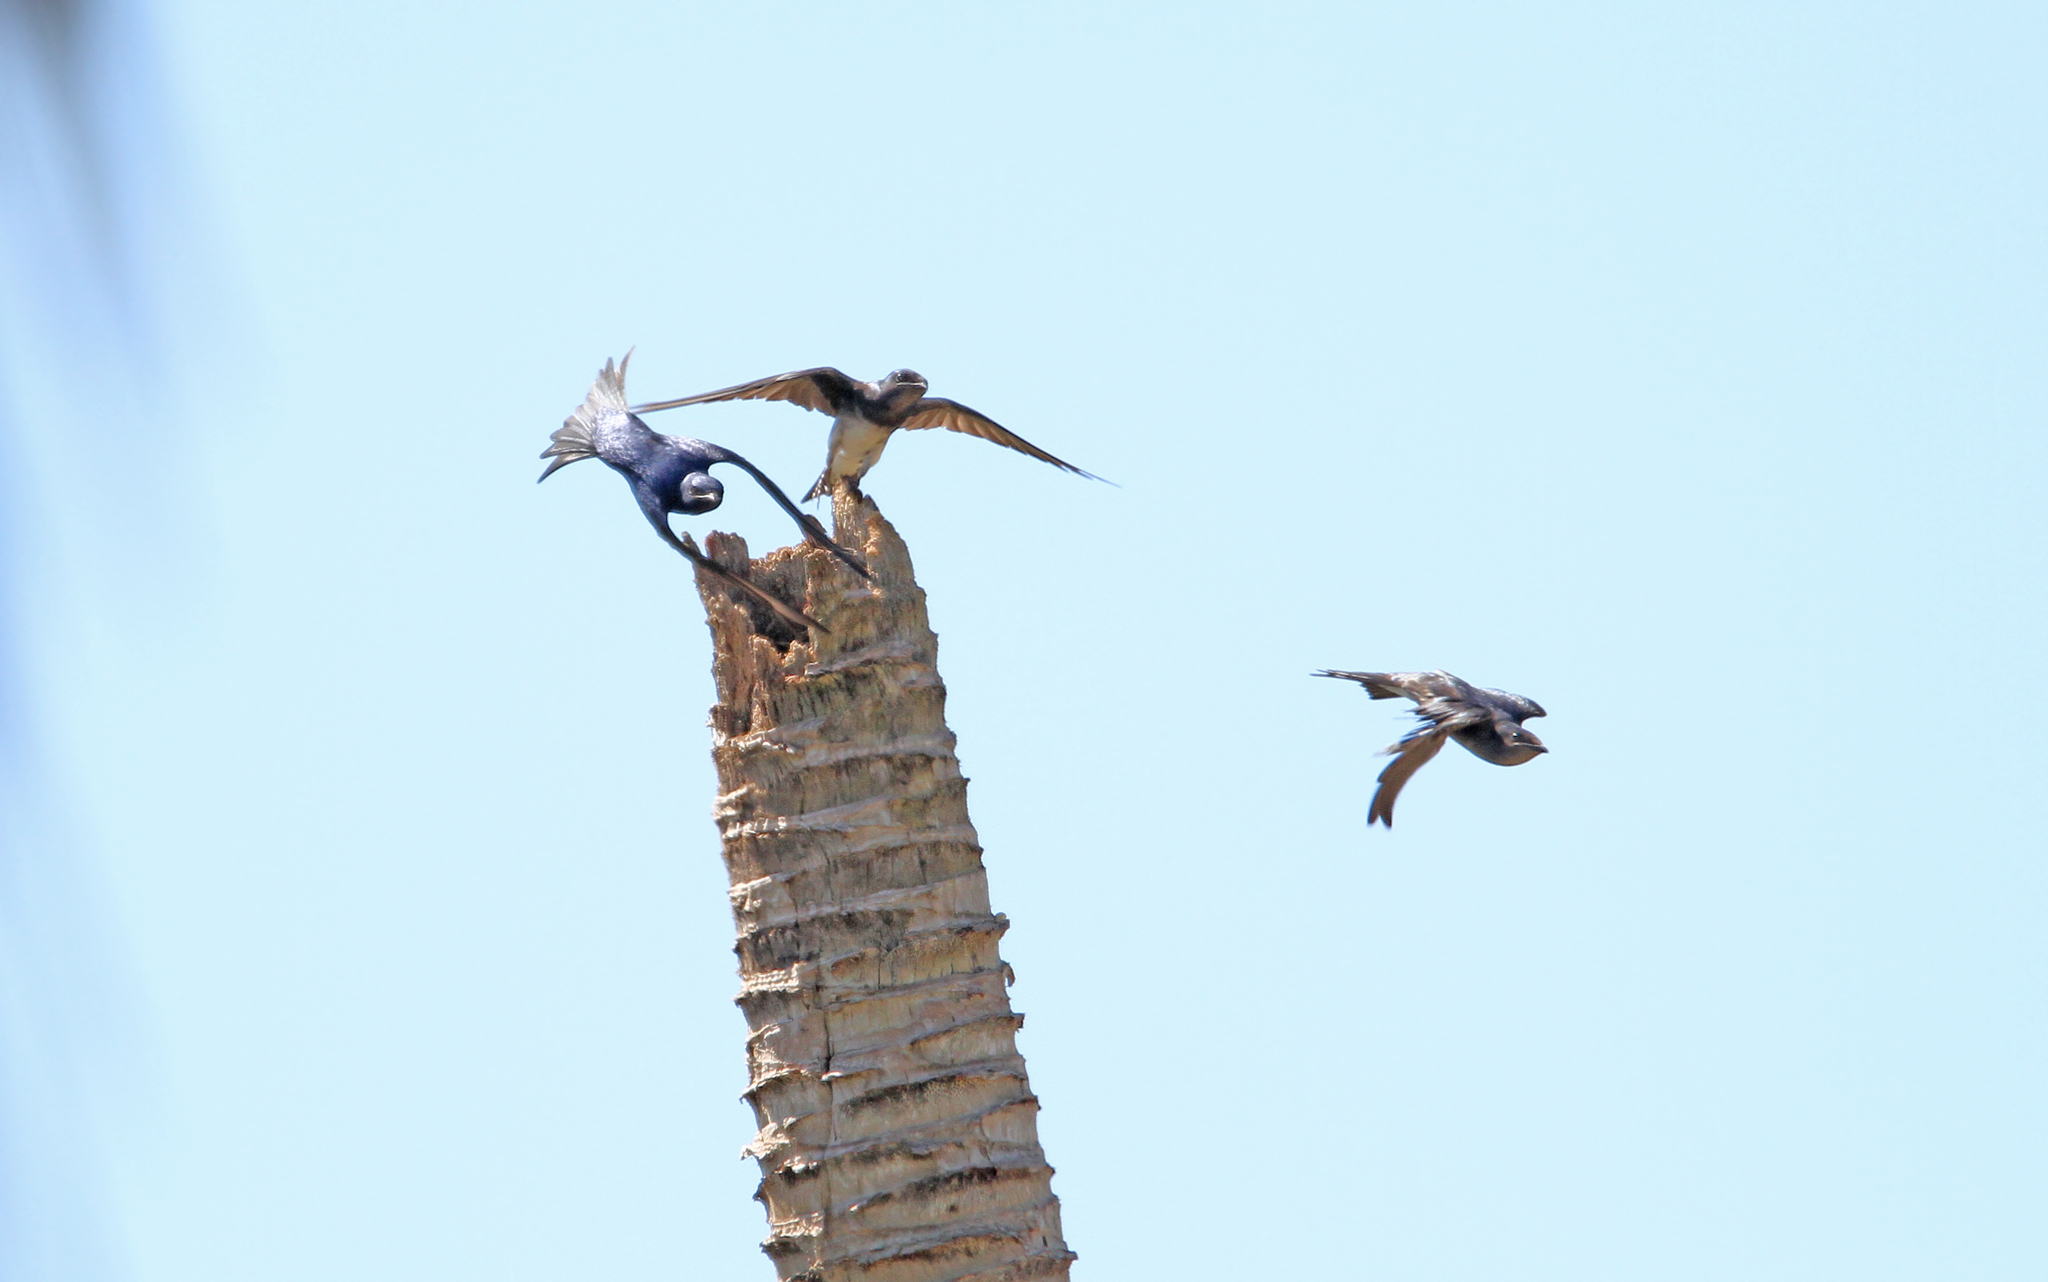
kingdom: Animalia
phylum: Chordata
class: Aves
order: Passeriformes
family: Hirundinidae
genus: Progne
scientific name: Progne cryptoleuca
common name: Cuban martin
